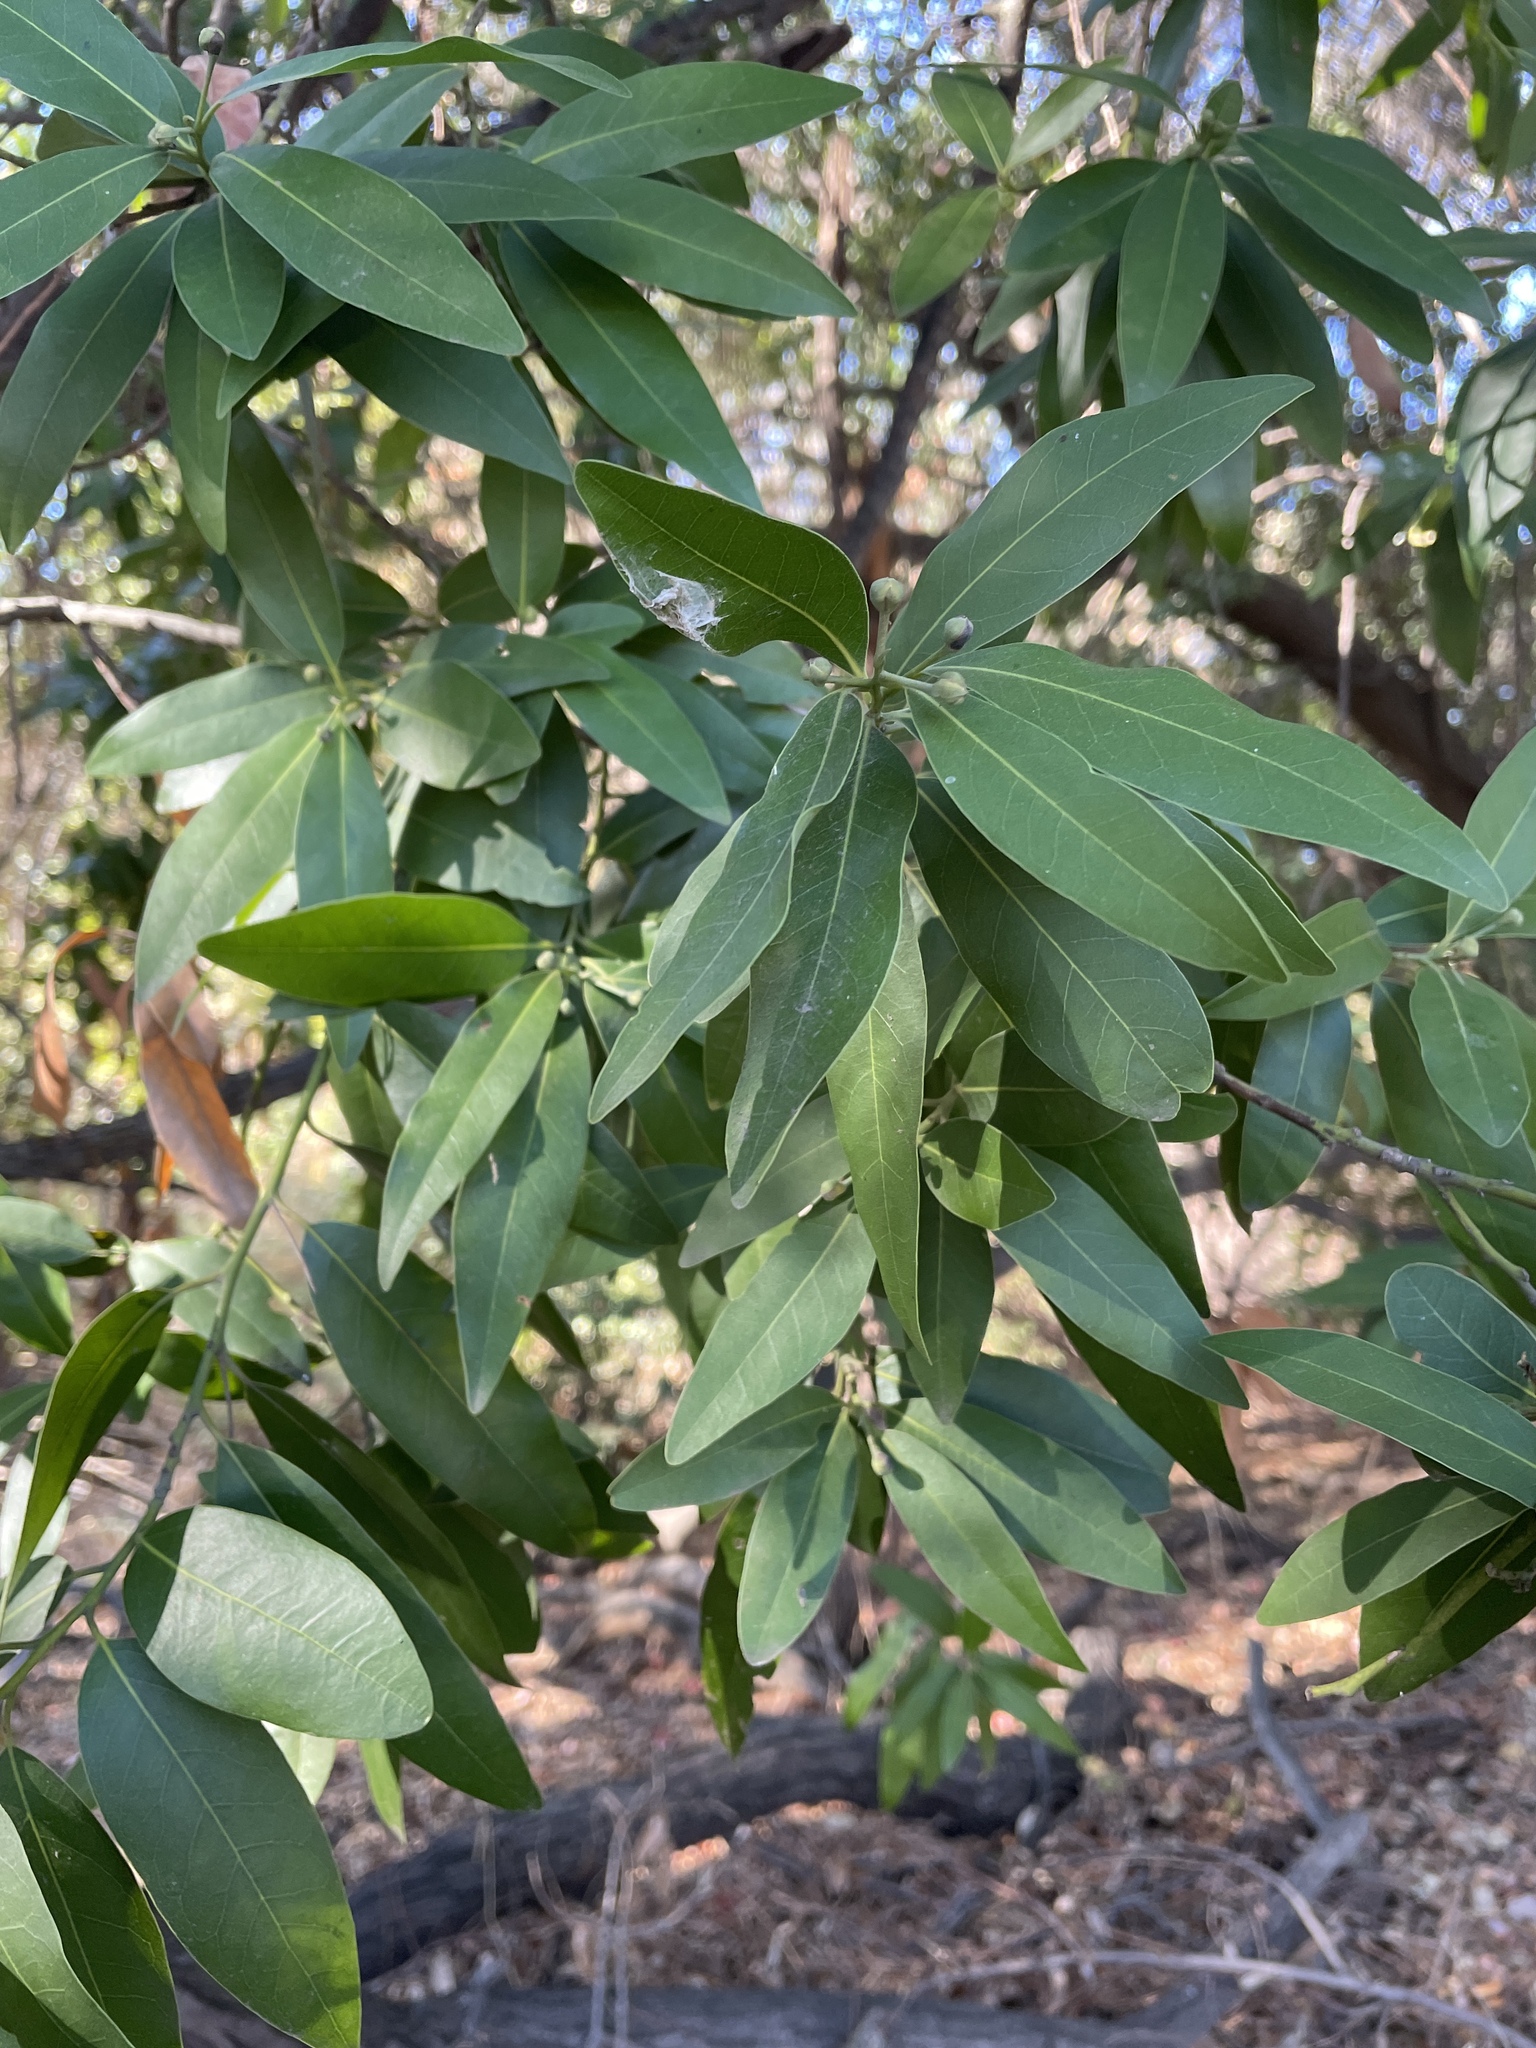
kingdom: Plantae
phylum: Tracheophyta
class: Magnoliopsida
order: Laurales
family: Lauraceae
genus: Umbellularia
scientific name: Umbellularia californica
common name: California bay
